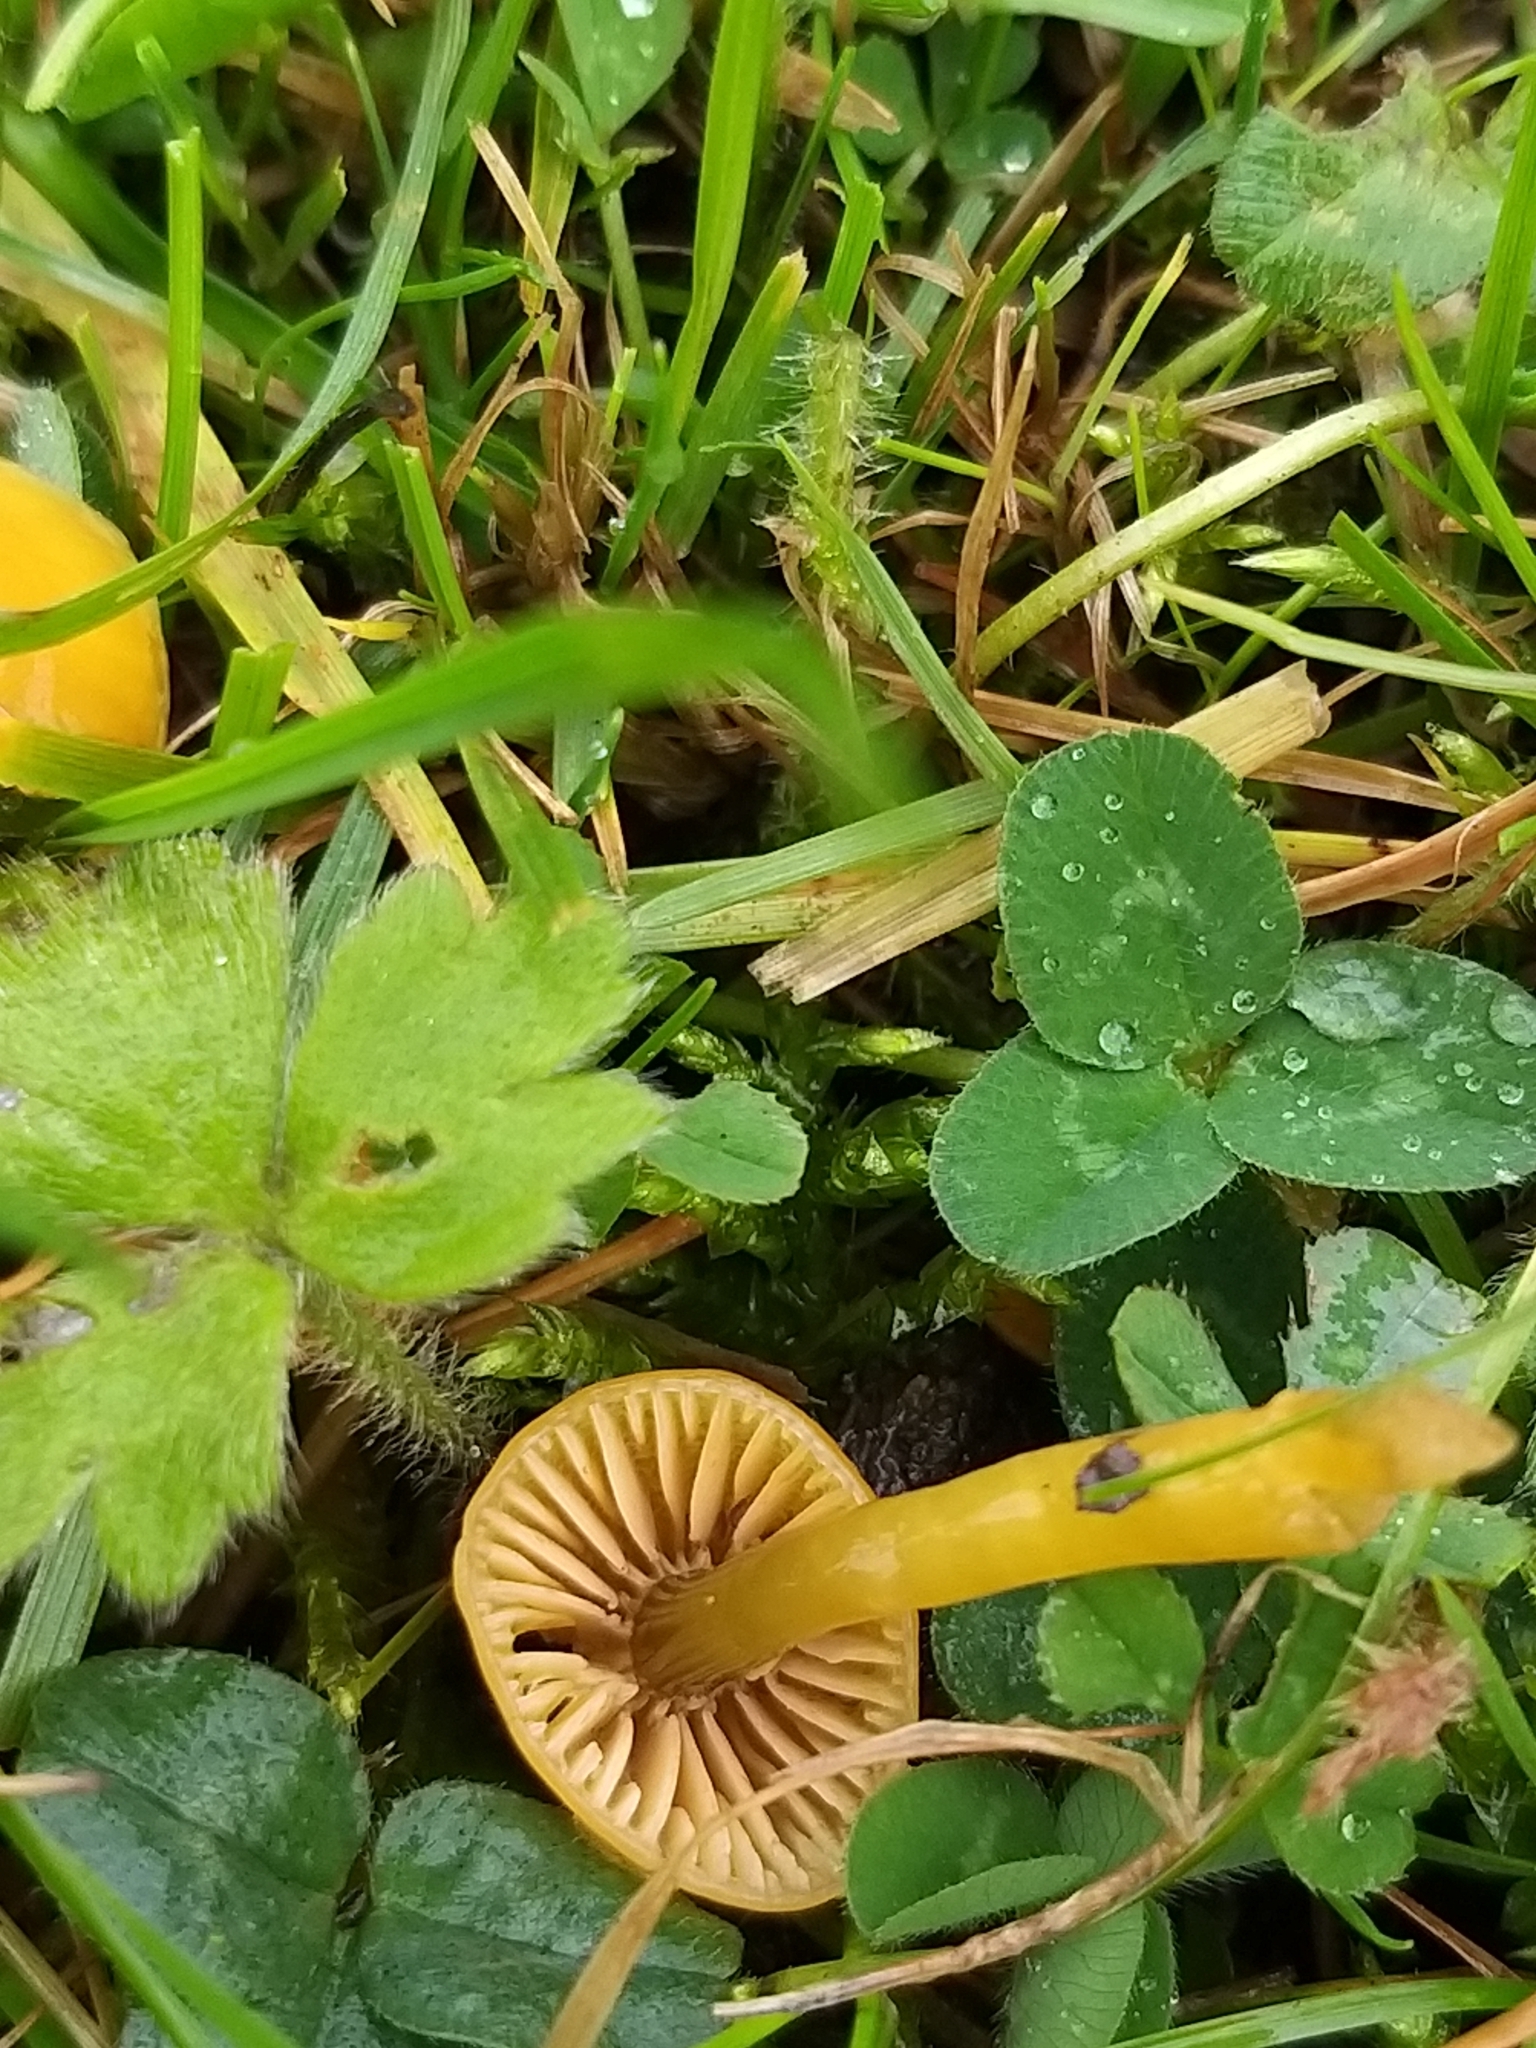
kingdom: Fungi
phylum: Basidiomycota
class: Agaricomycetes
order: Agaricales
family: Hygrophoraceae
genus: Gliophorus
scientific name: Gliophorus psittacinus
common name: Parrot wax-cap
